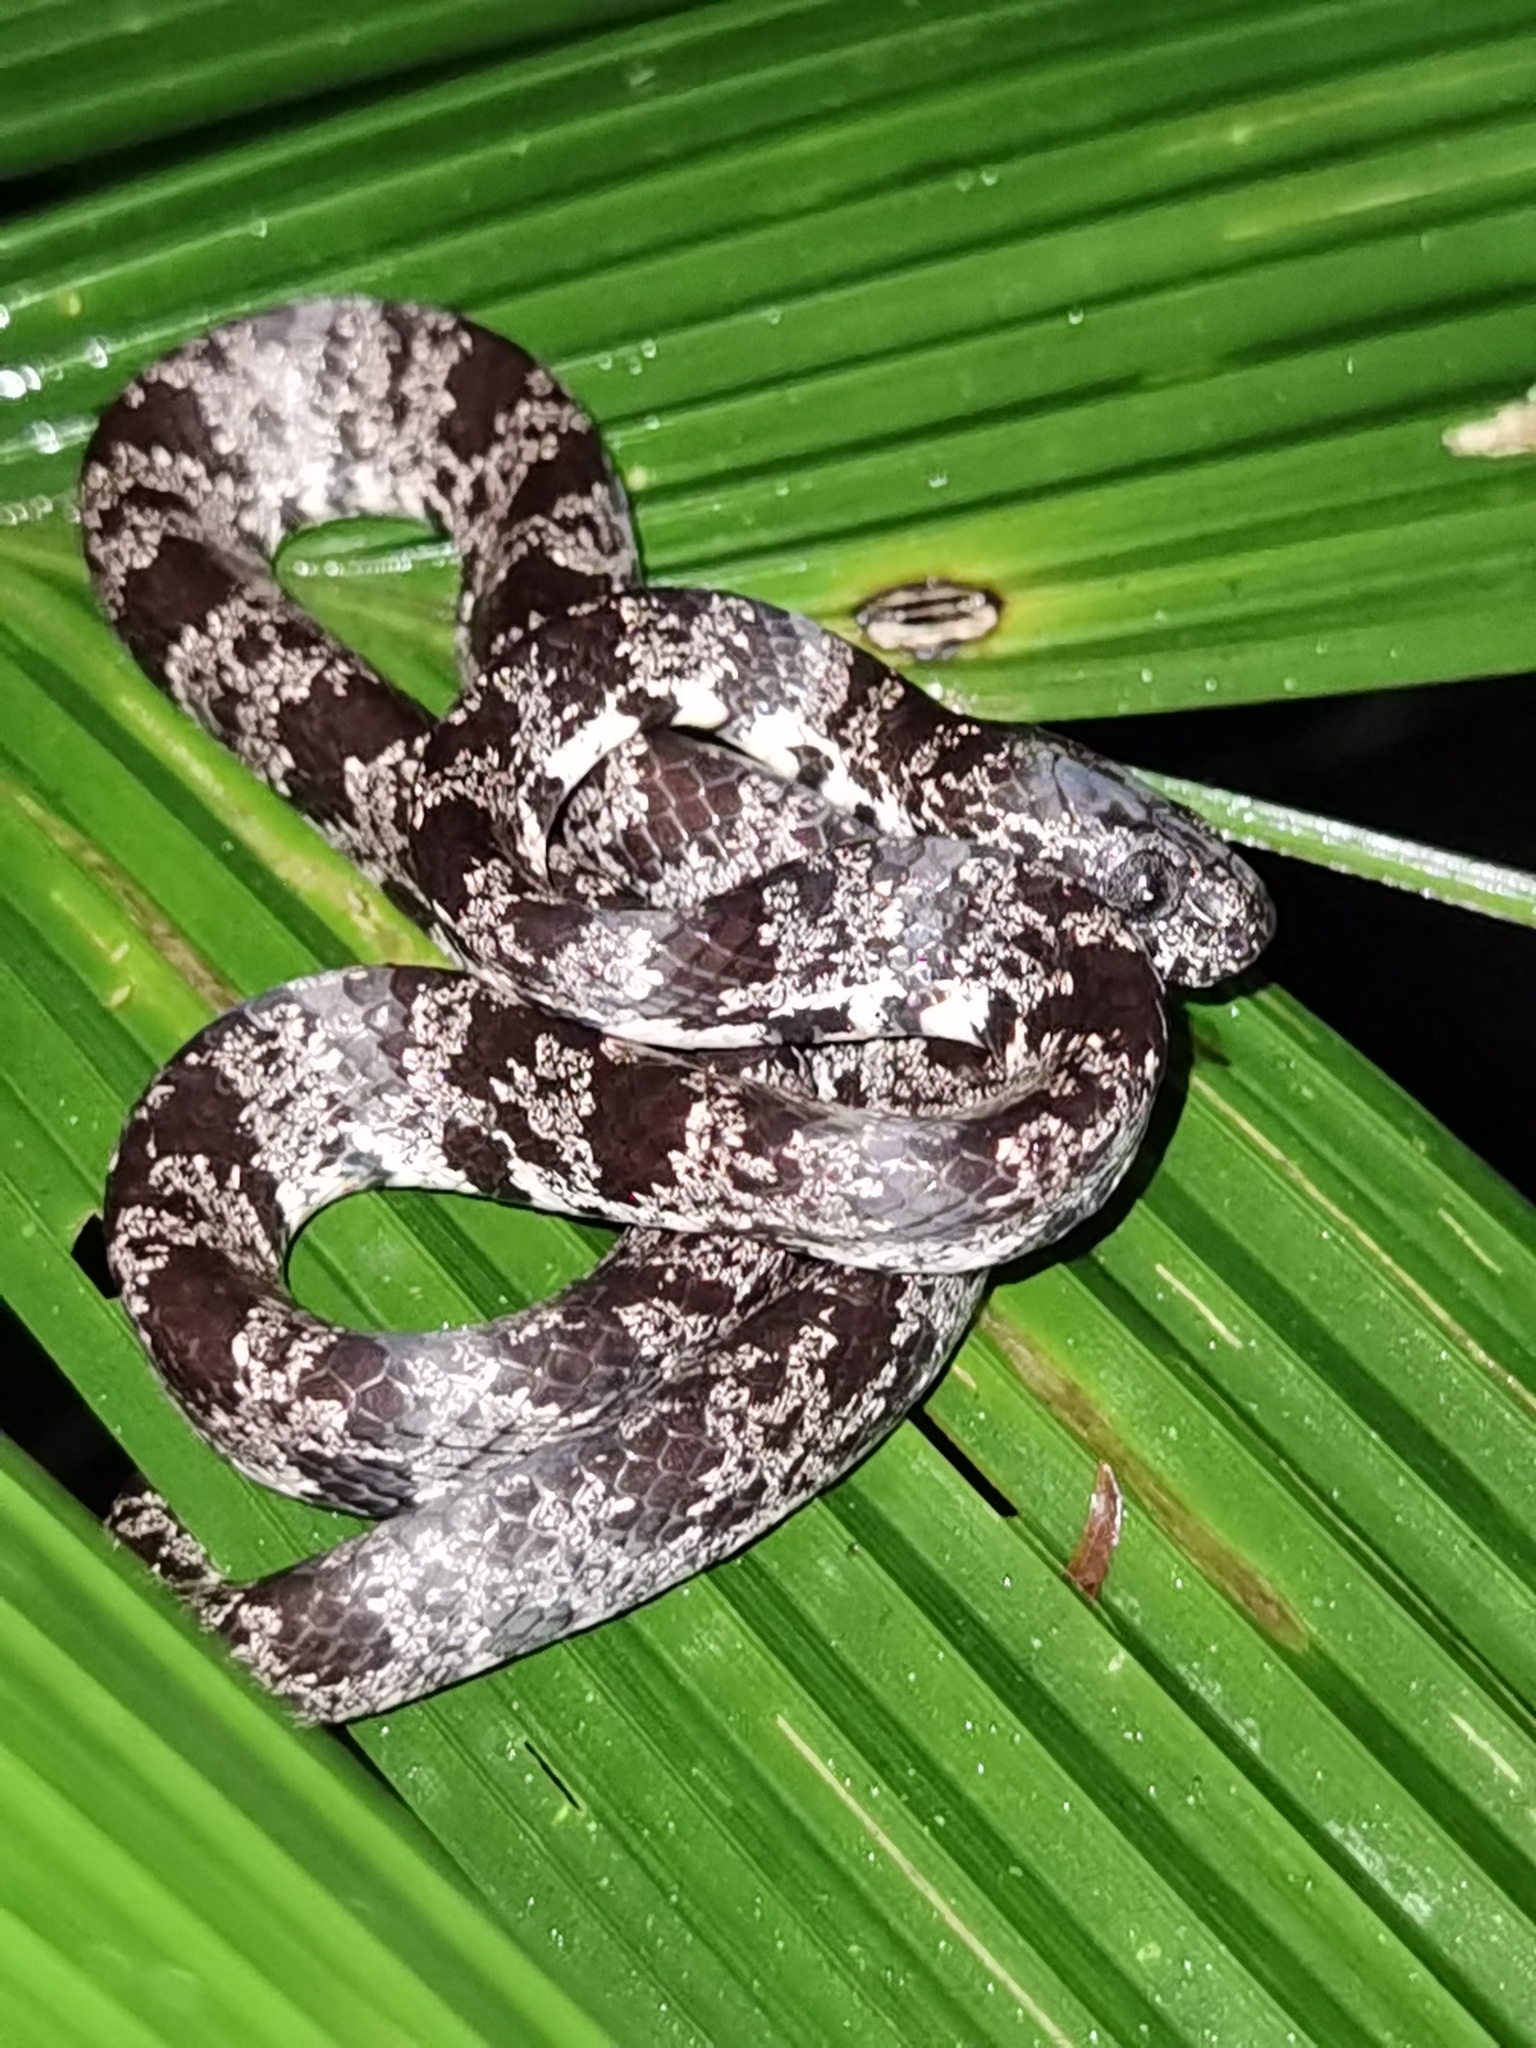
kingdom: Animalia
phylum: Chordata
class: Squamata
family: Colubridae
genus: Sibon
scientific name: Sibon nebulatus
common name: Cloudy snail-eating snake
